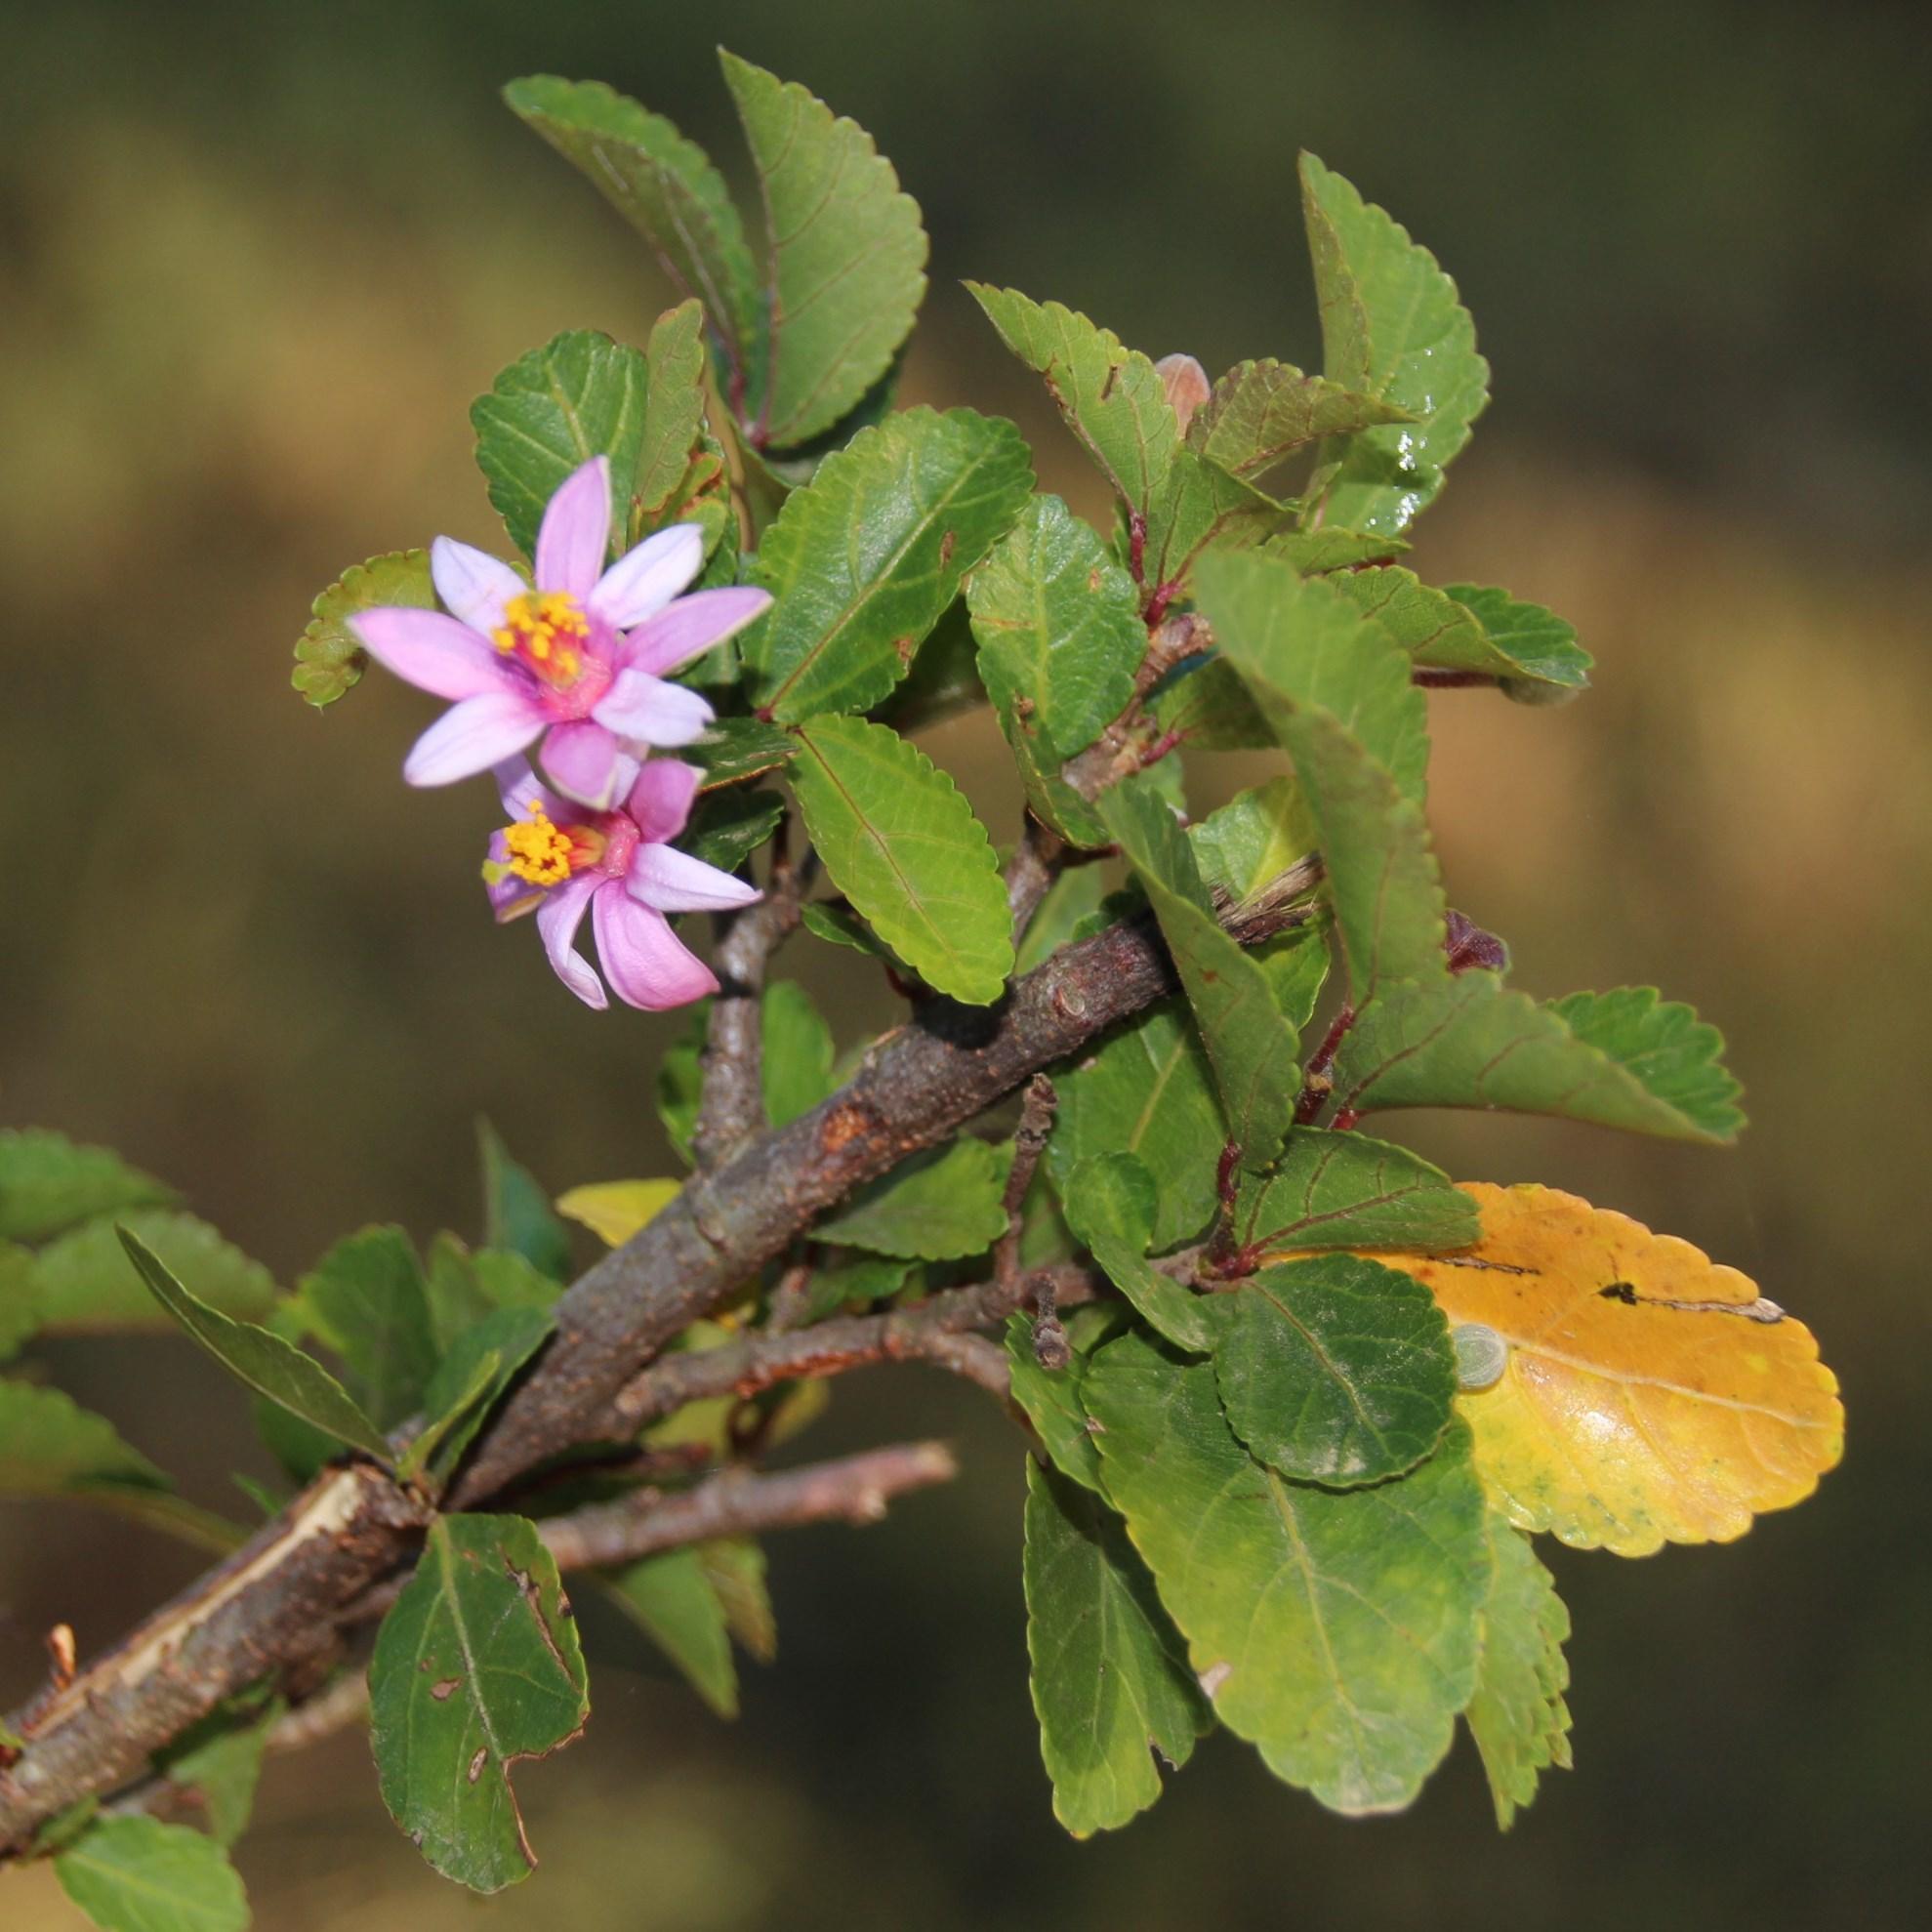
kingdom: Plantae
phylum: Tracheophyta
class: Magnoliopsida
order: Malvales
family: Malvaceae
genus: Grewia
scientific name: Grewia occidentalis
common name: Crossberry
